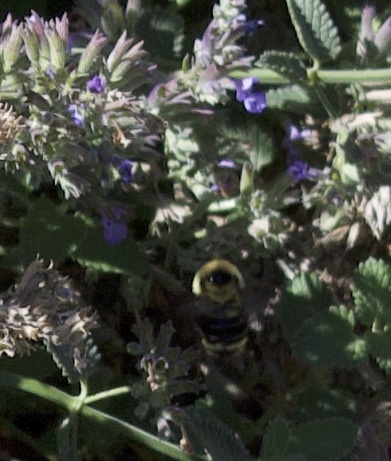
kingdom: Animalia
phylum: Arthropoda
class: Insecta
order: Hymenoptera
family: Apidae
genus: Bombus
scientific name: Bombus rufocinctus
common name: Red-belted bumble bee
